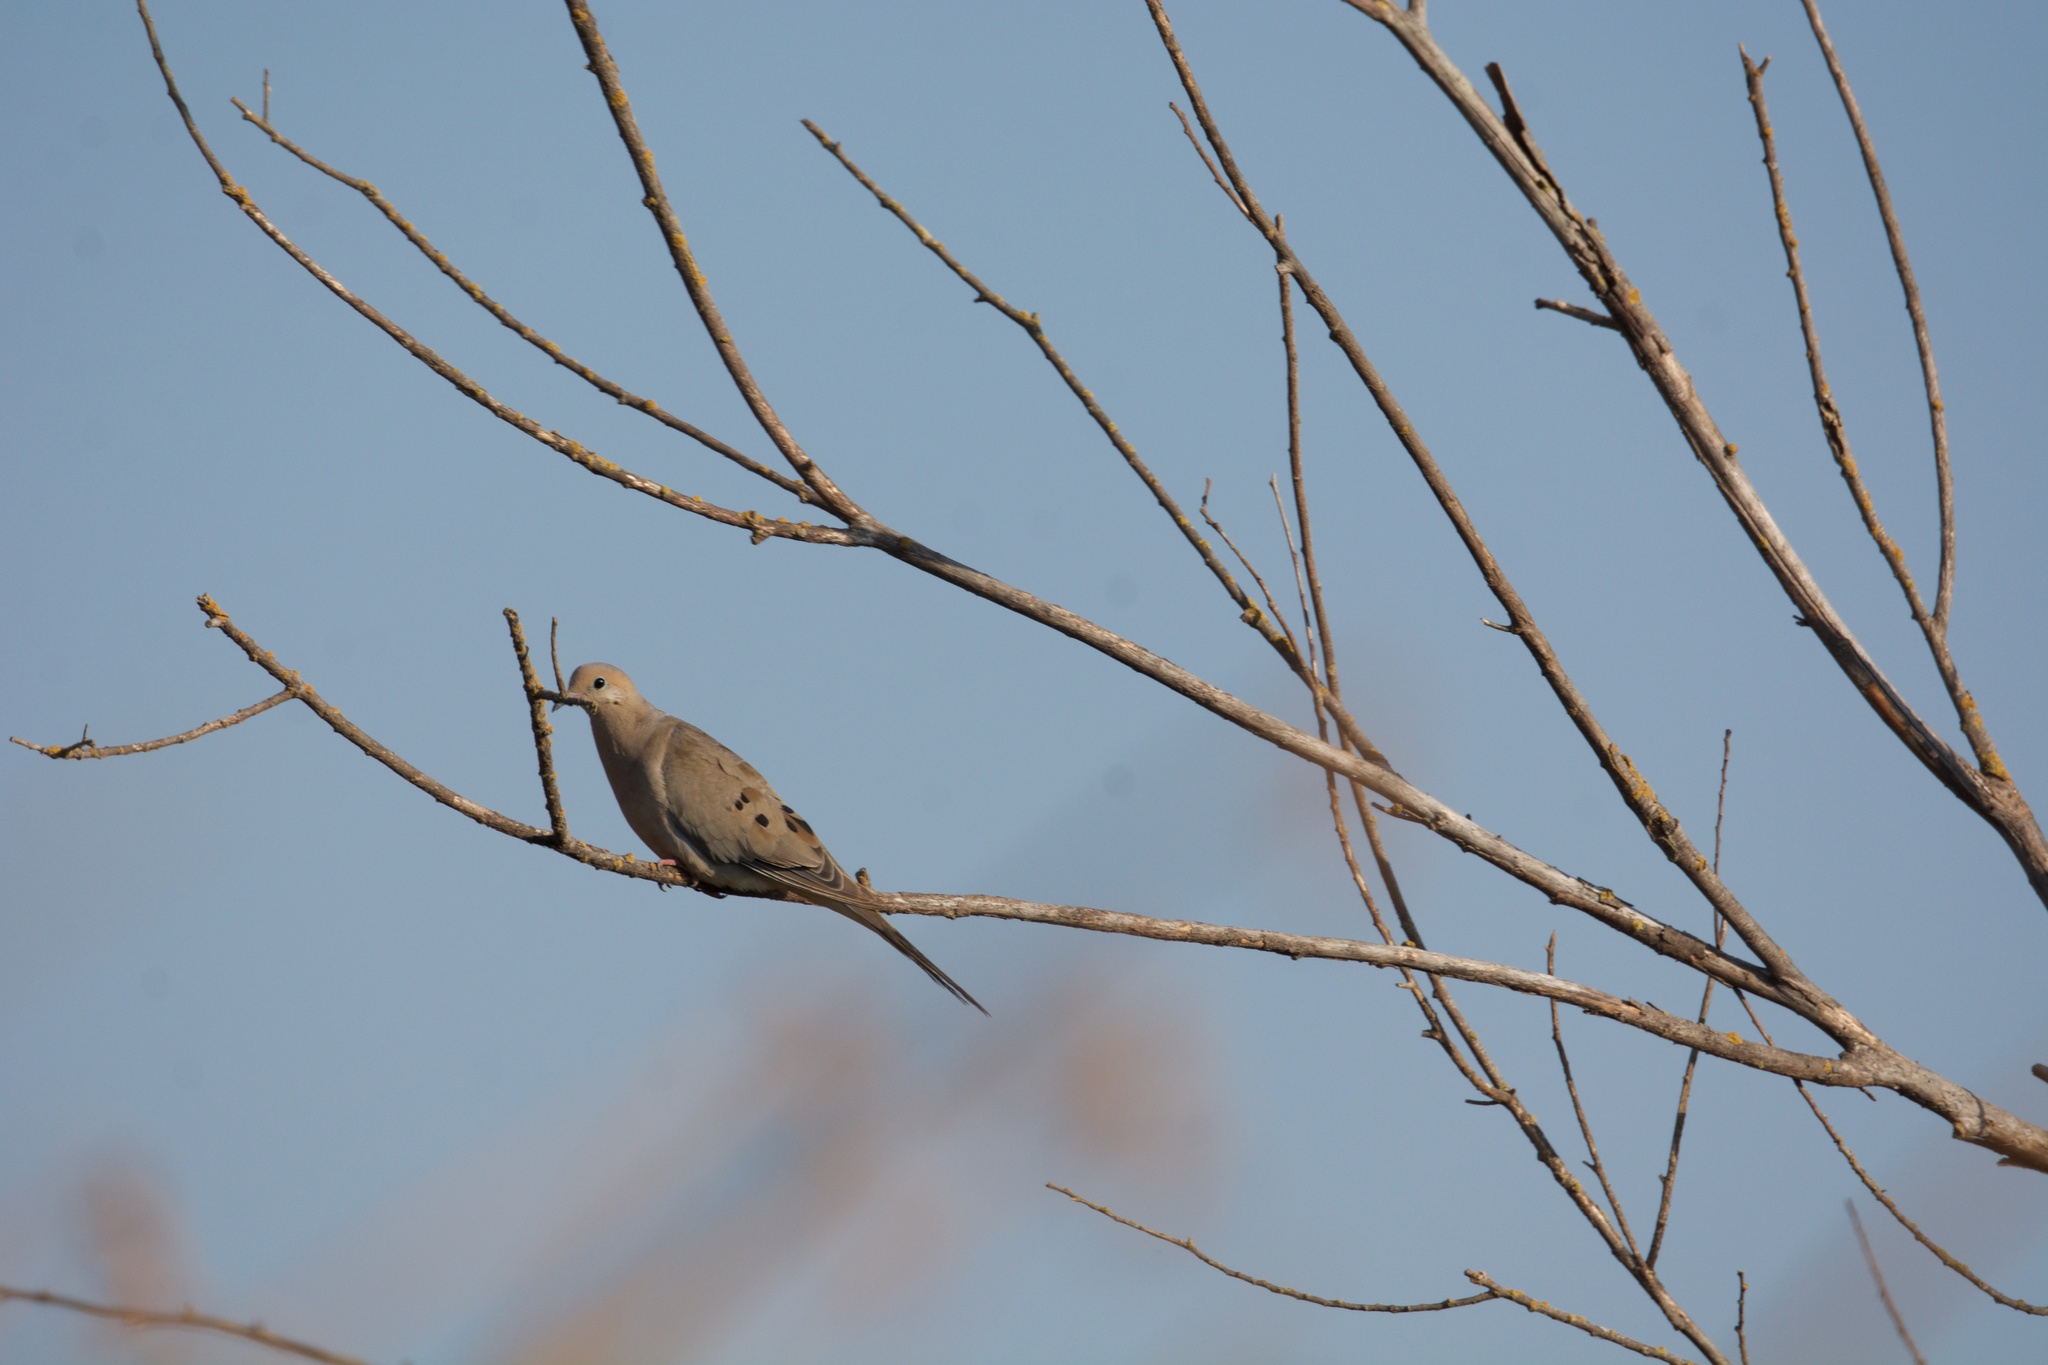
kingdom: Animalia
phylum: Chordata
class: Aves
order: Columbiformes
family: Columbidae
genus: Zenaida
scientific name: Zenaida macroura
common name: Mourning dove
